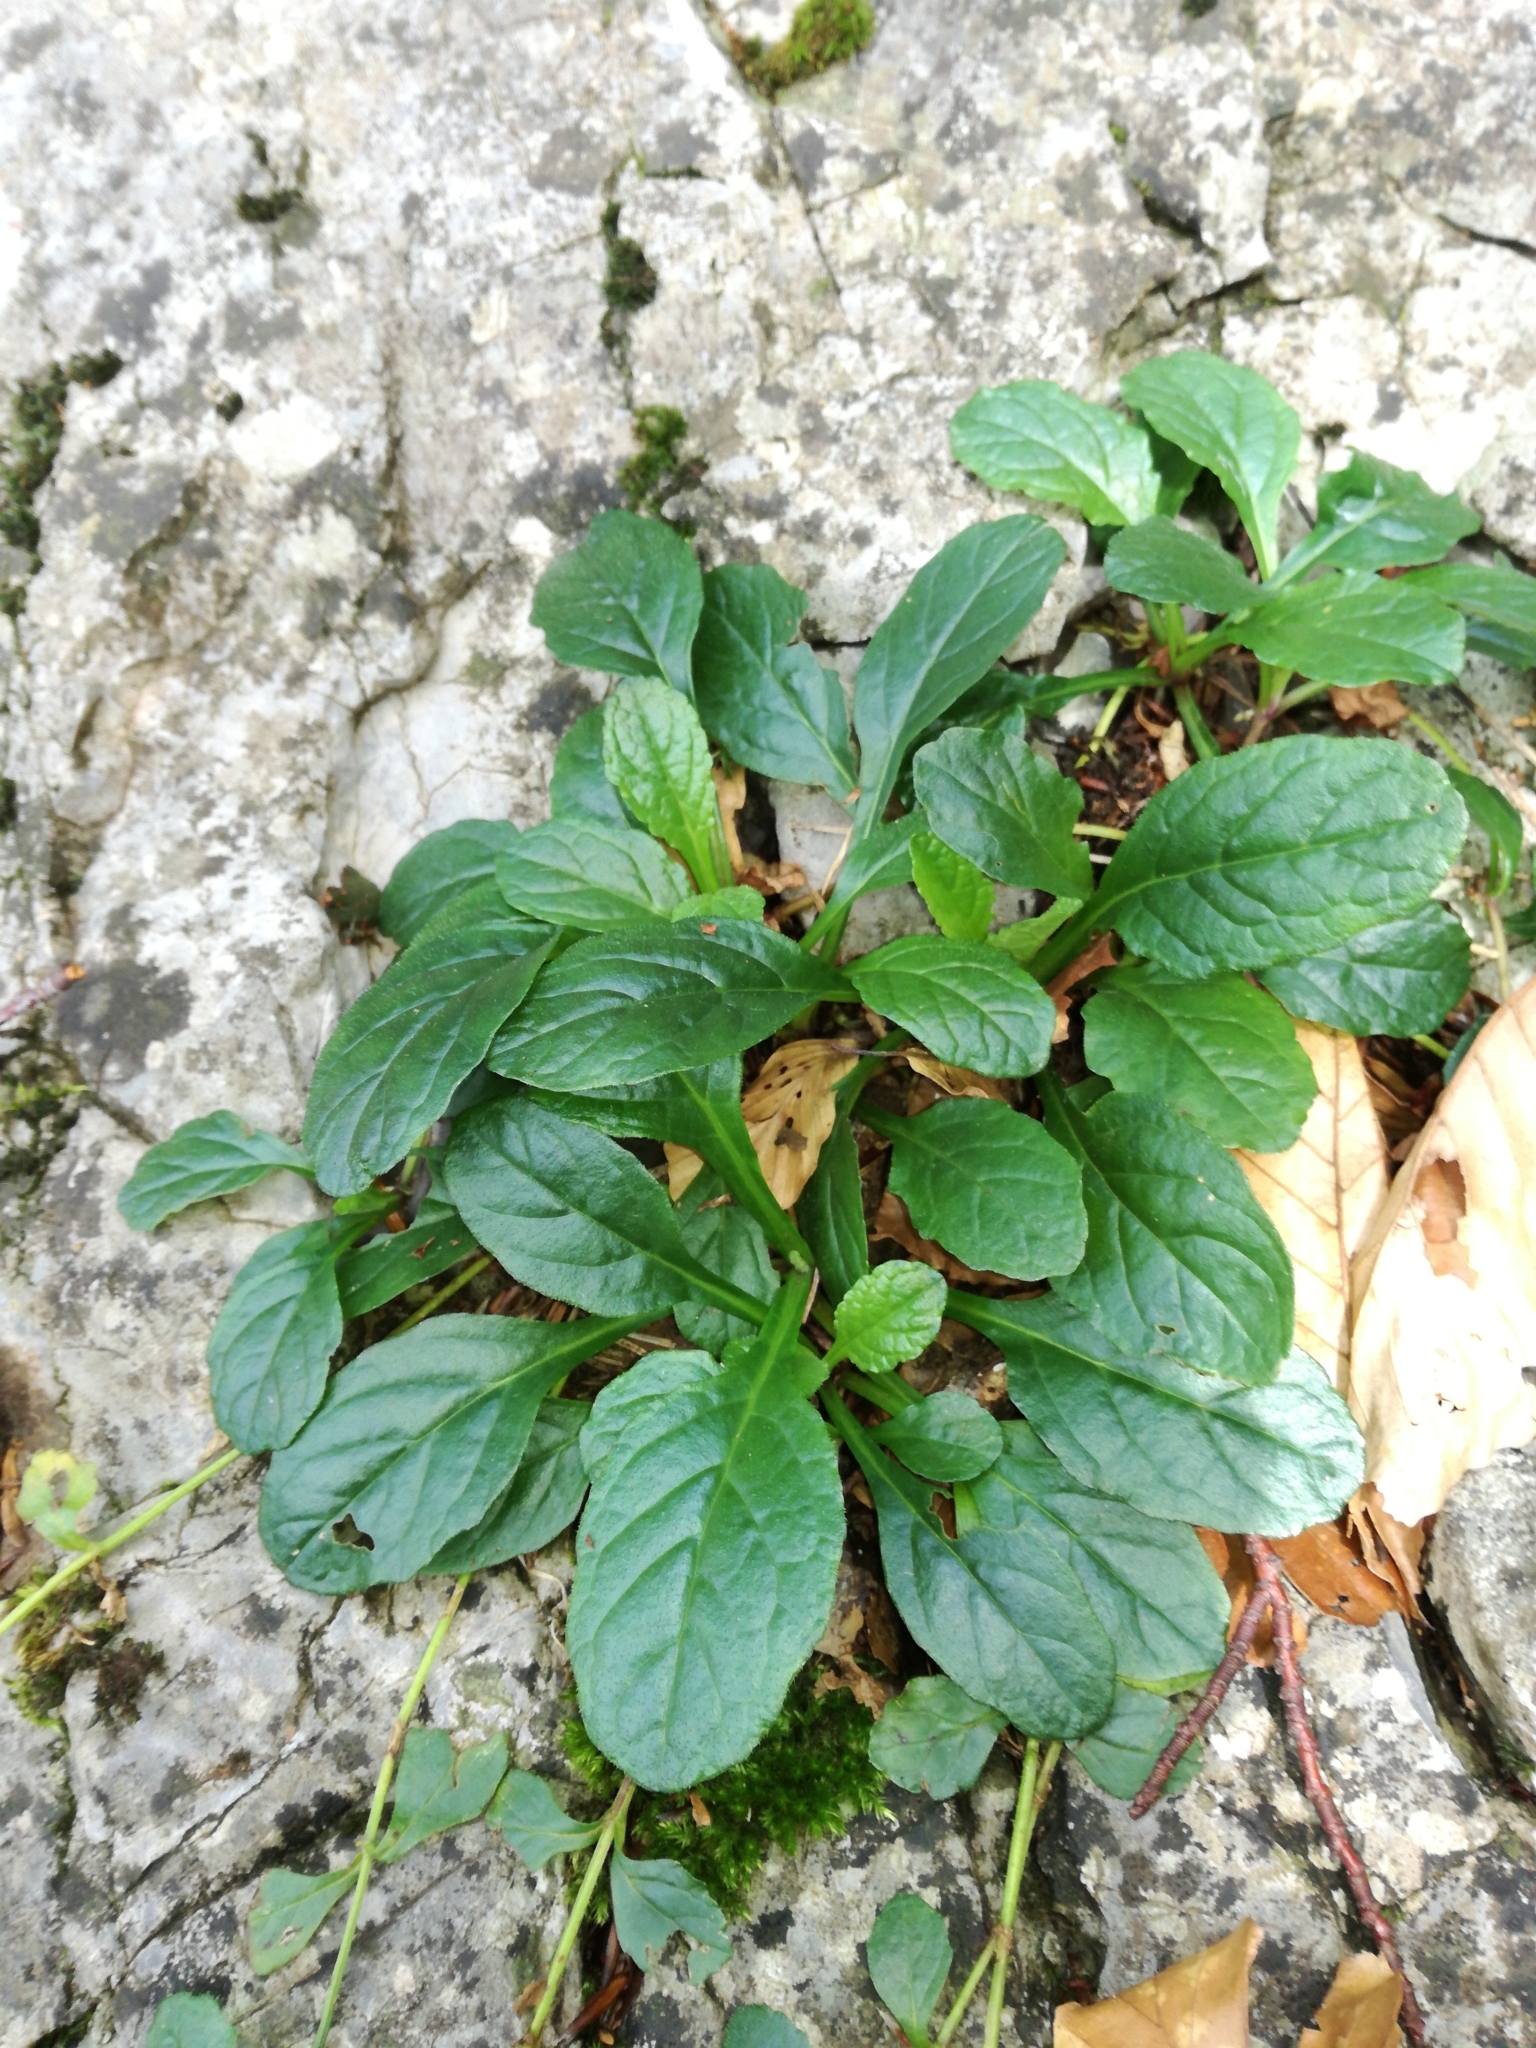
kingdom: Plantae
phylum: Tracheophyta
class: Magnoliopsida
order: Lamiales
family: Lamiaceae
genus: Ajuga
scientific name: Ajuga reptans
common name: Bugle
